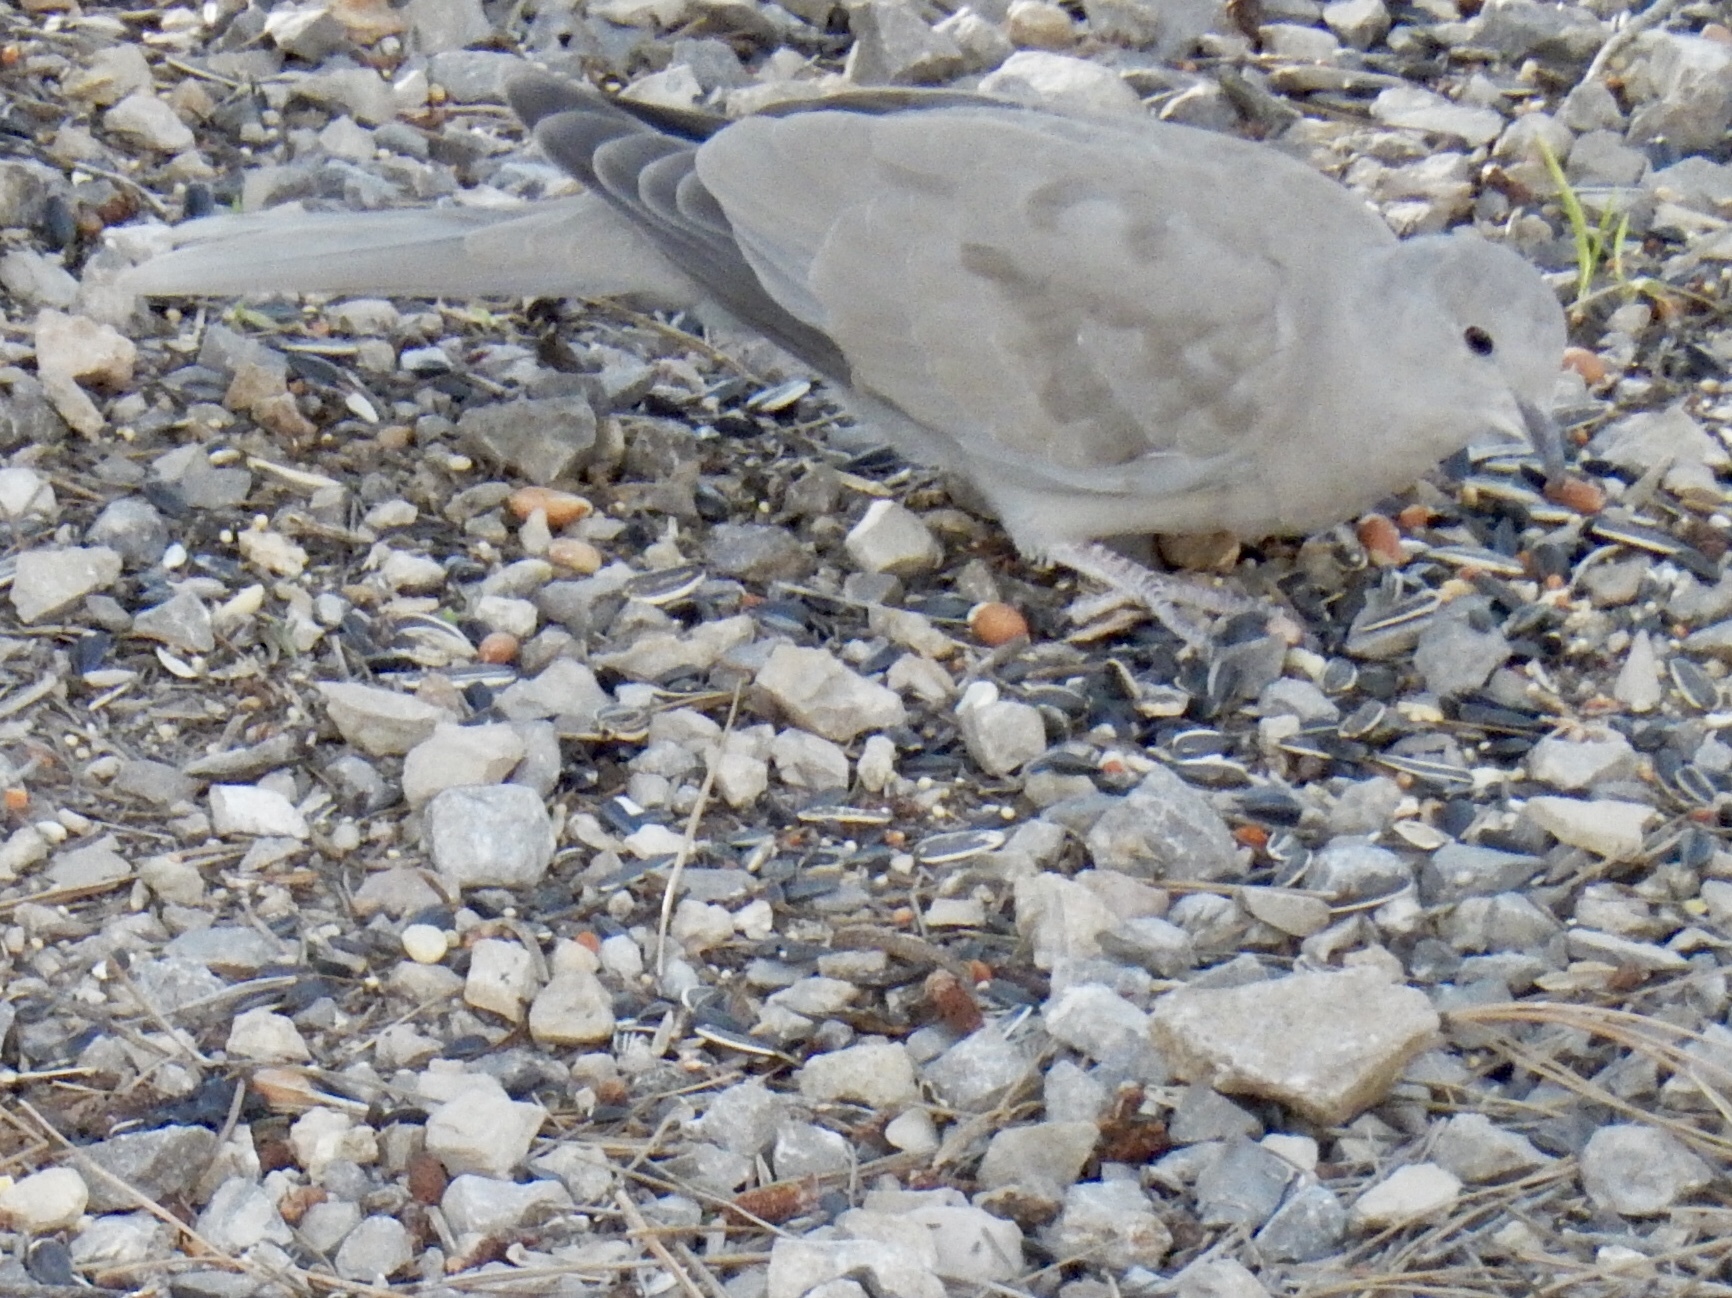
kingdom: Animalia
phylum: Chordata
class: Aves
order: Columbiformes
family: Columbidae
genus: Streptopelia
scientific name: Streptopelia decaocto
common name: Eurasian collared dove
